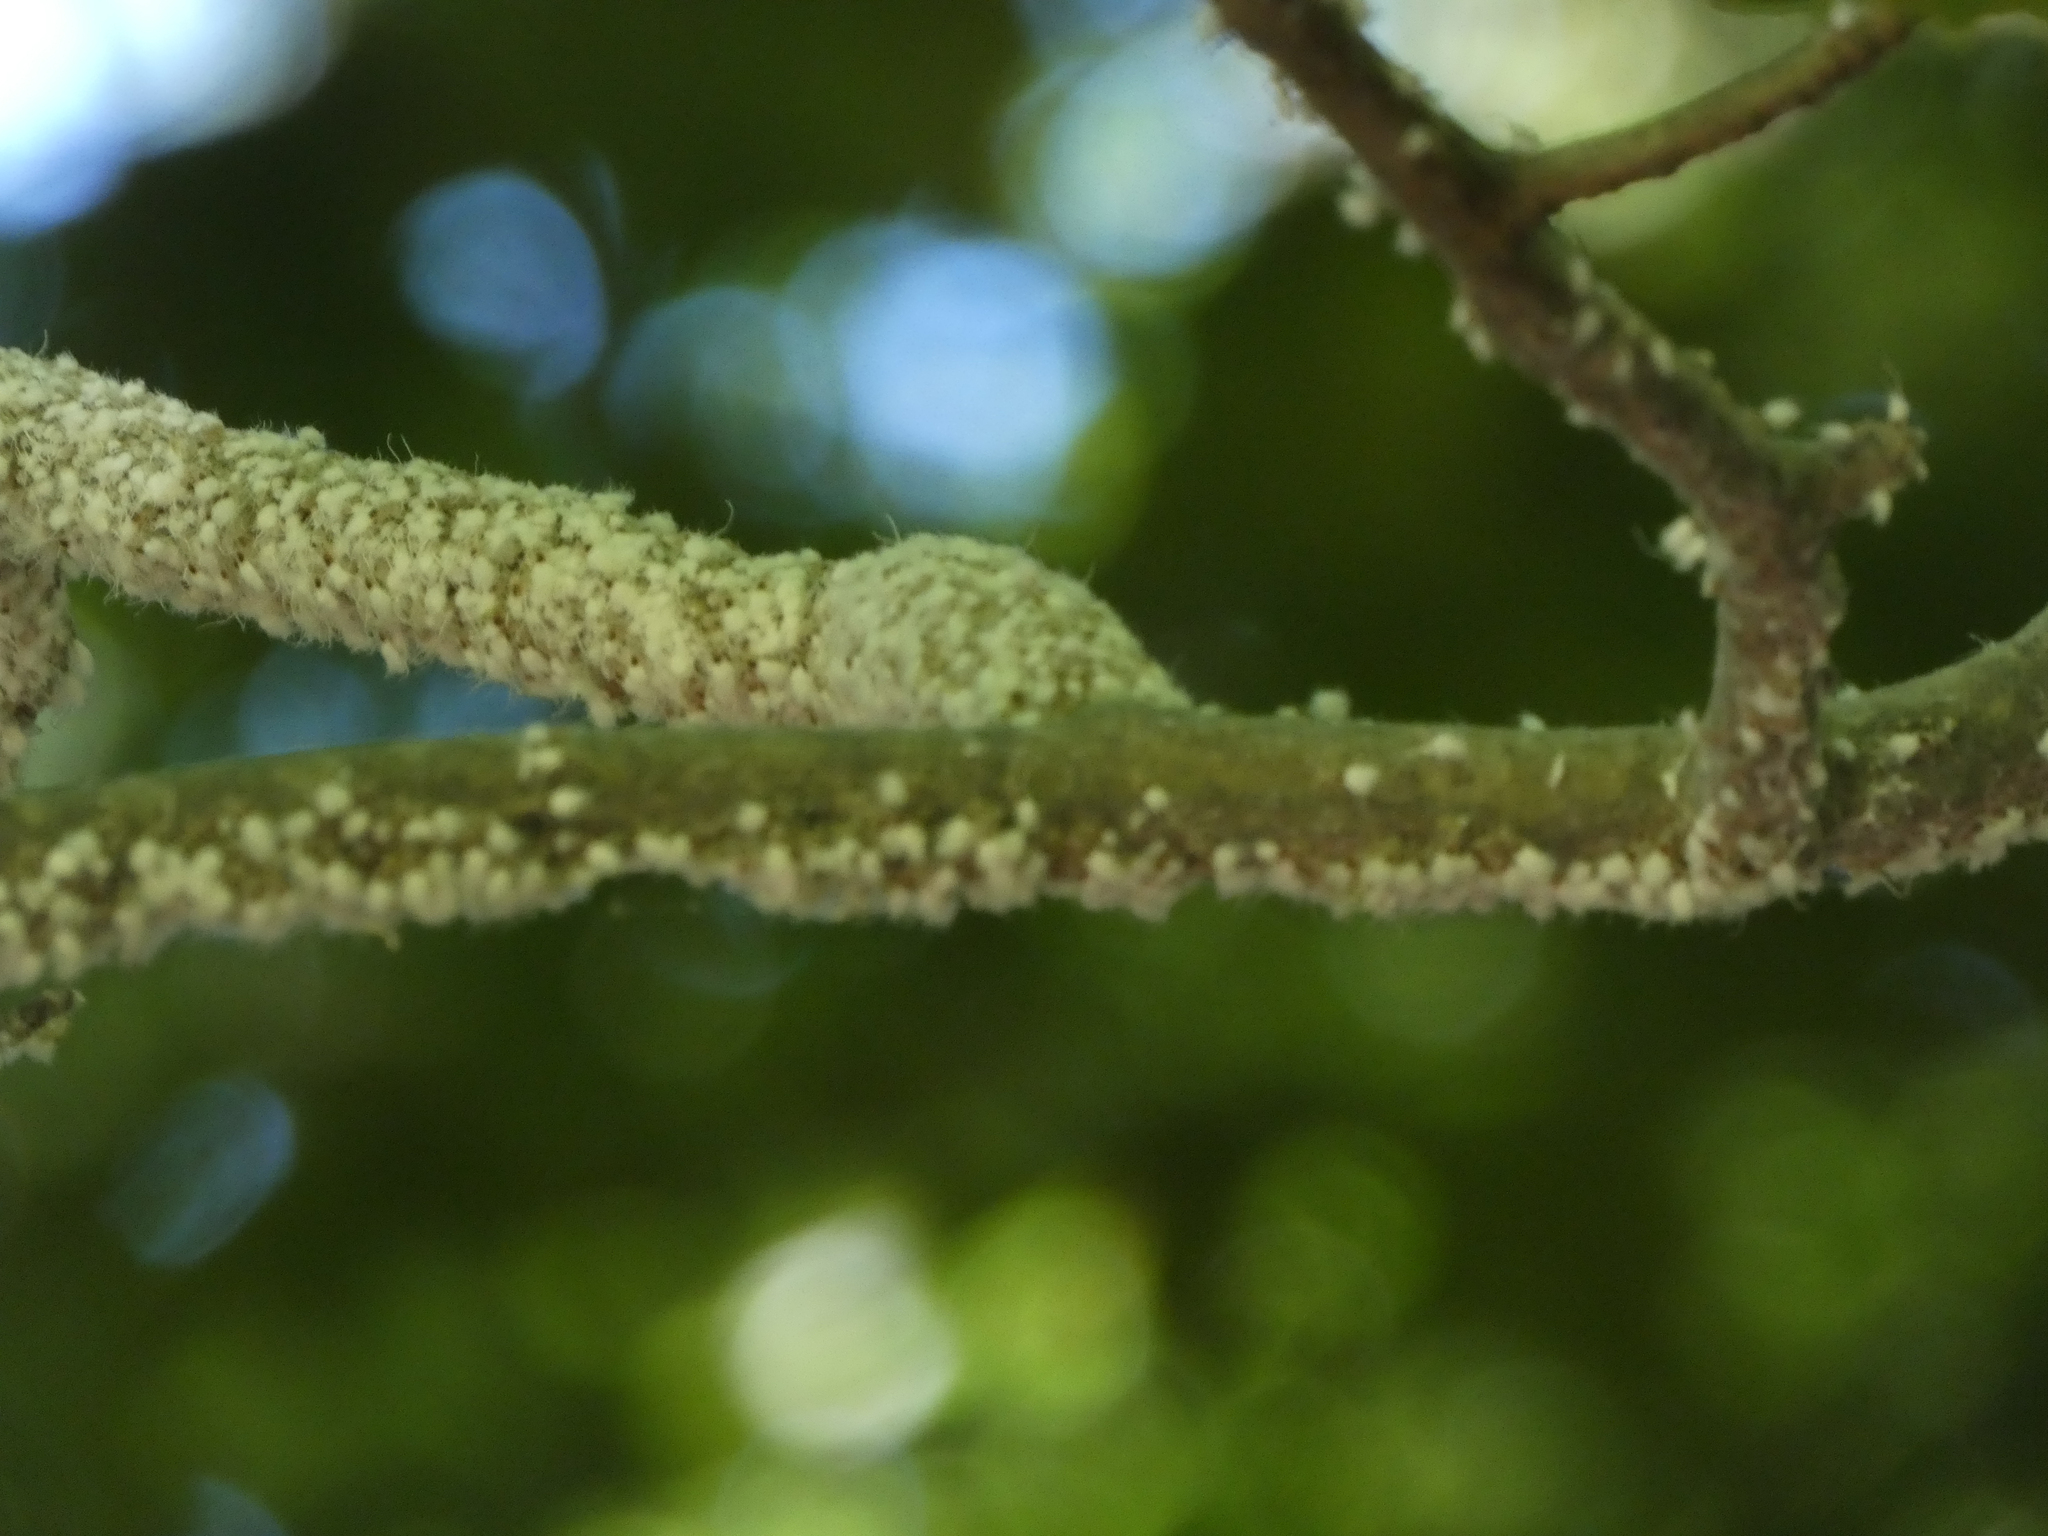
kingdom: Animalia
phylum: Arthropoda
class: Insecta
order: Hemiptera
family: Aphididae
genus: Grylloprociphilus
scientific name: Grylloprociphilus imbricator
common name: Beech blight aphid
